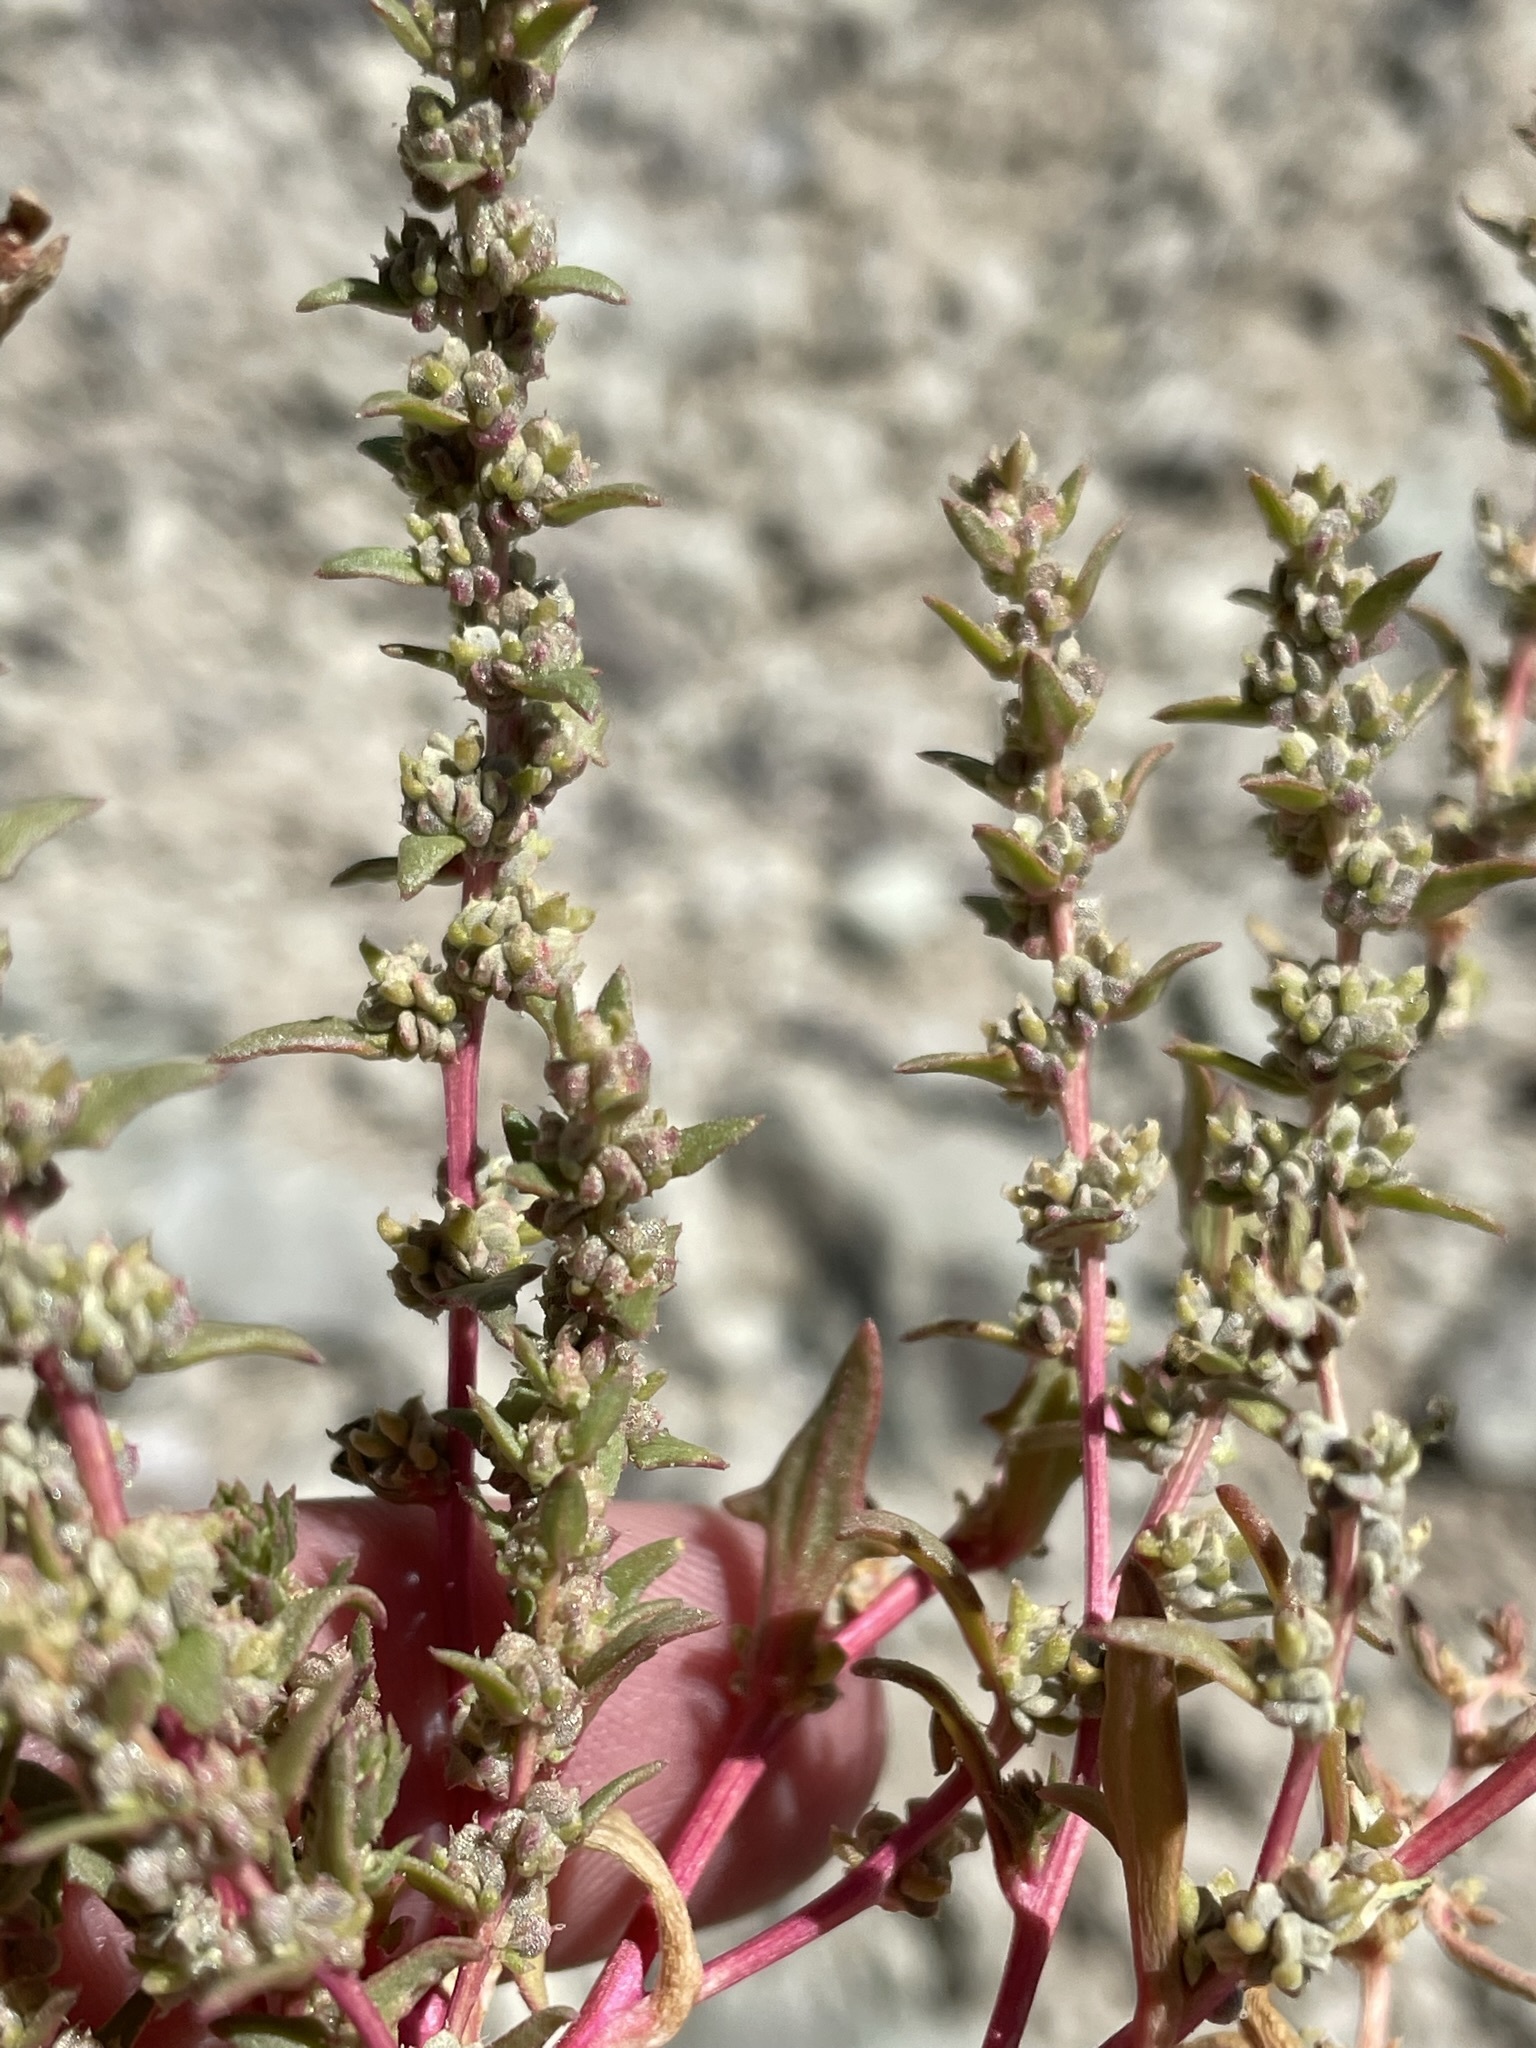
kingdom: Plantae
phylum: Tracheophyta
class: Magnoliopsida
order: Caryophyllales
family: Amaranthaceae
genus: Blitum
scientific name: Blitum nuttallianum
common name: Poverty-weed
